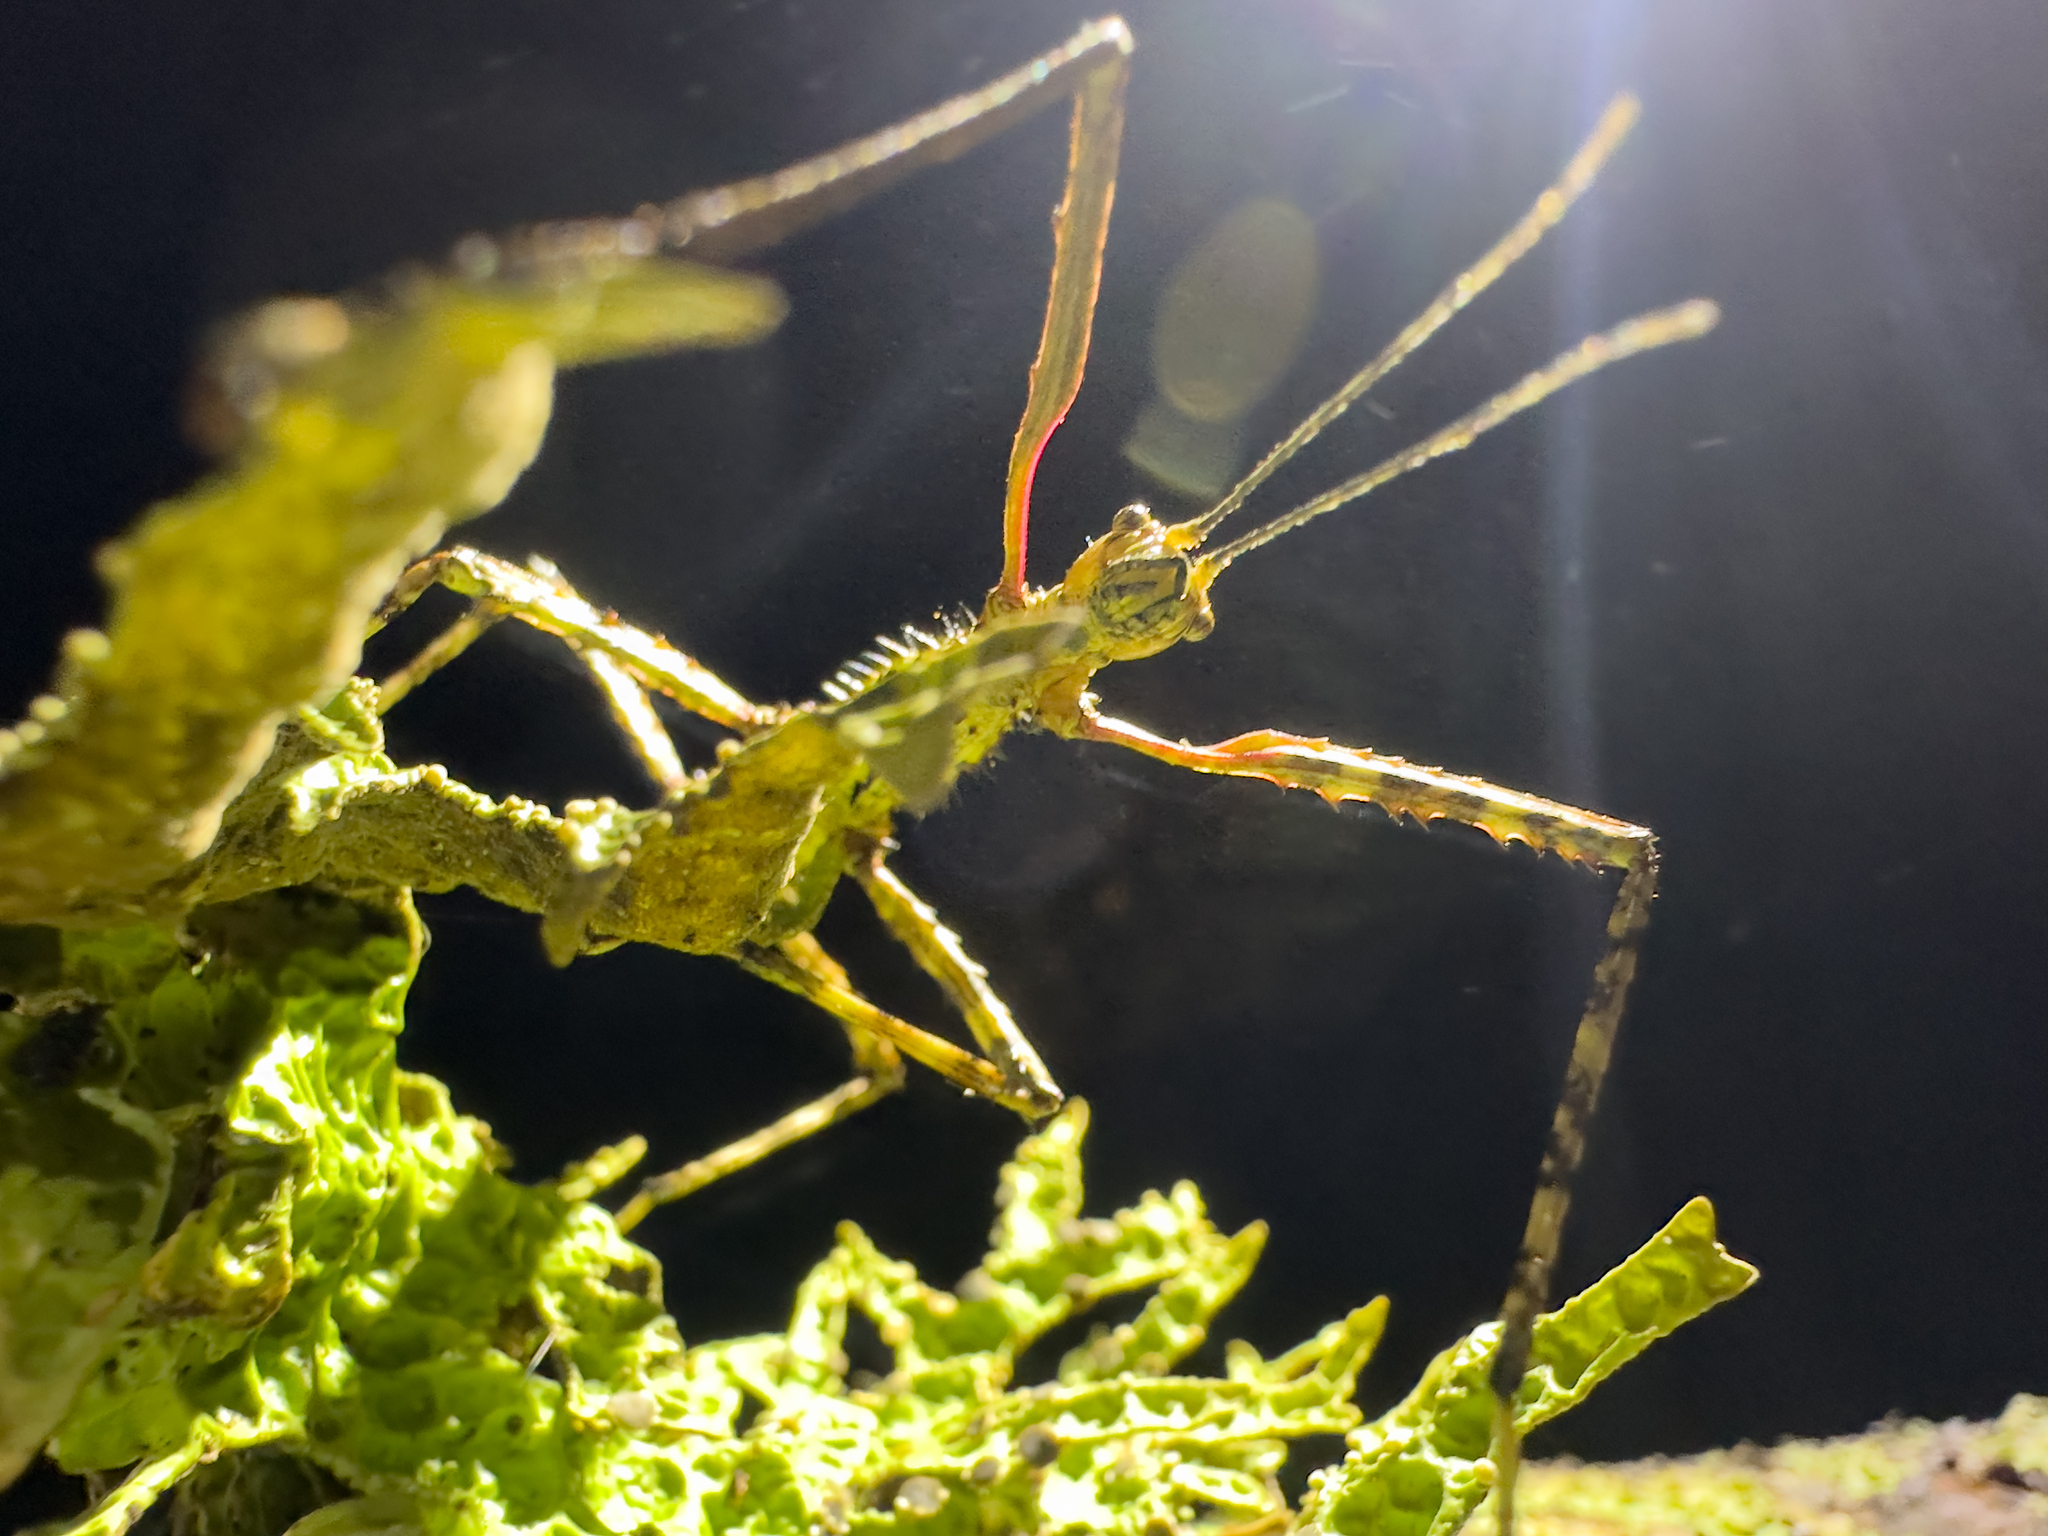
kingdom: Animalia
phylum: Arthropoda
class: Insecta
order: Phasmida
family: Phasmatidae
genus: Acanthoxyla
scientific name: Acanthoxyla prasina
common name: Black-spined stick insect
